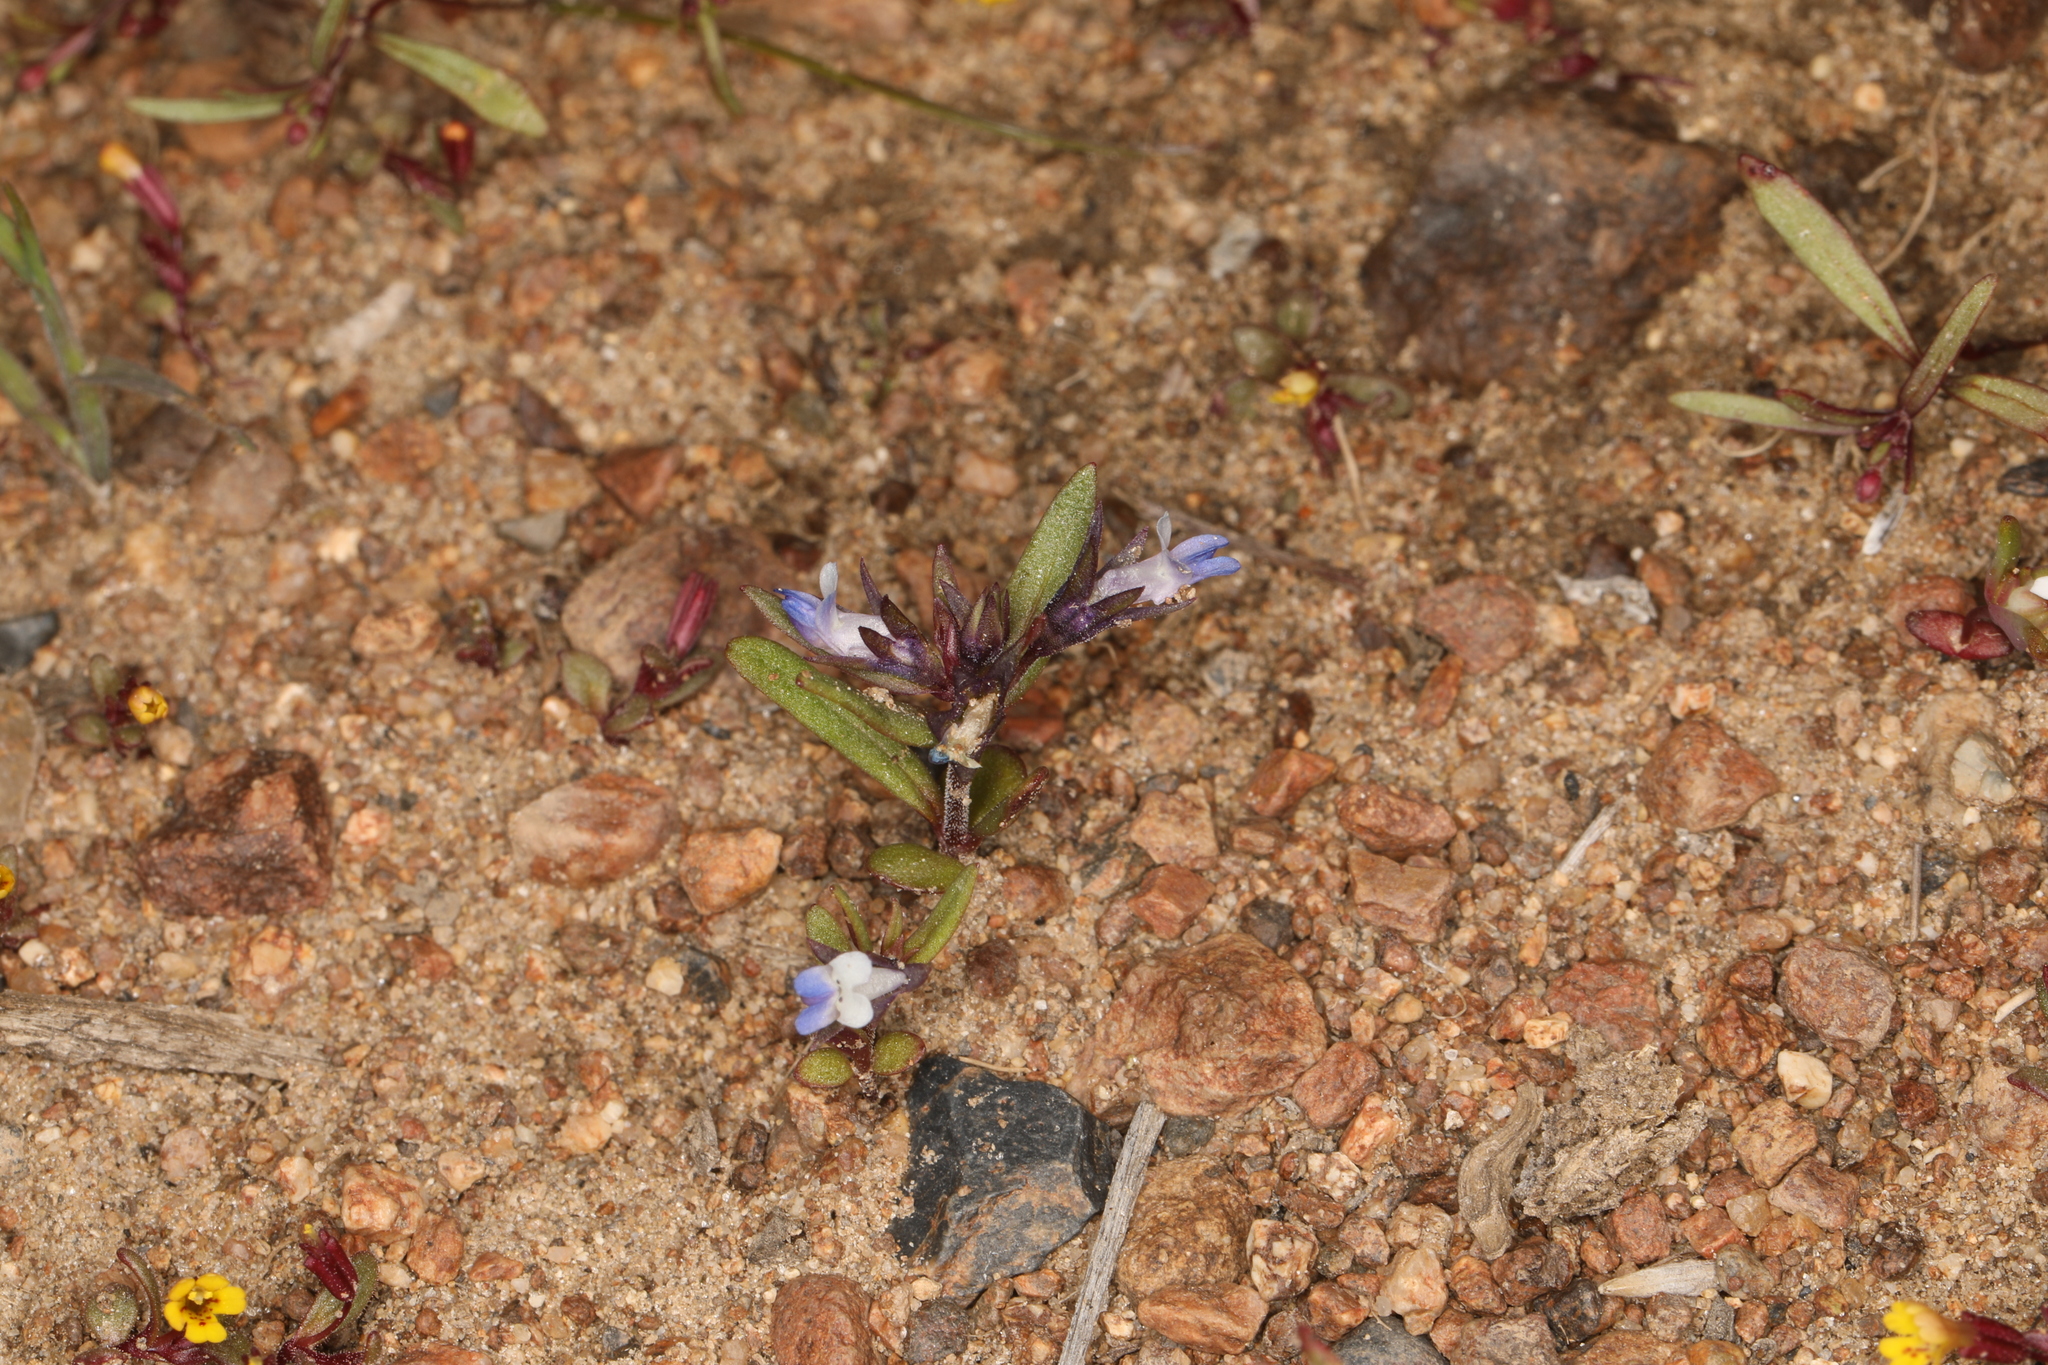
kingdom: Plantae
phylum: Tracheophyta
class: Magnoliopsida
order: Lamiales
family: Plantaginaceae
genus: Collinsia
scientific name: Collinsia parviflora
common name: Blue-lips
